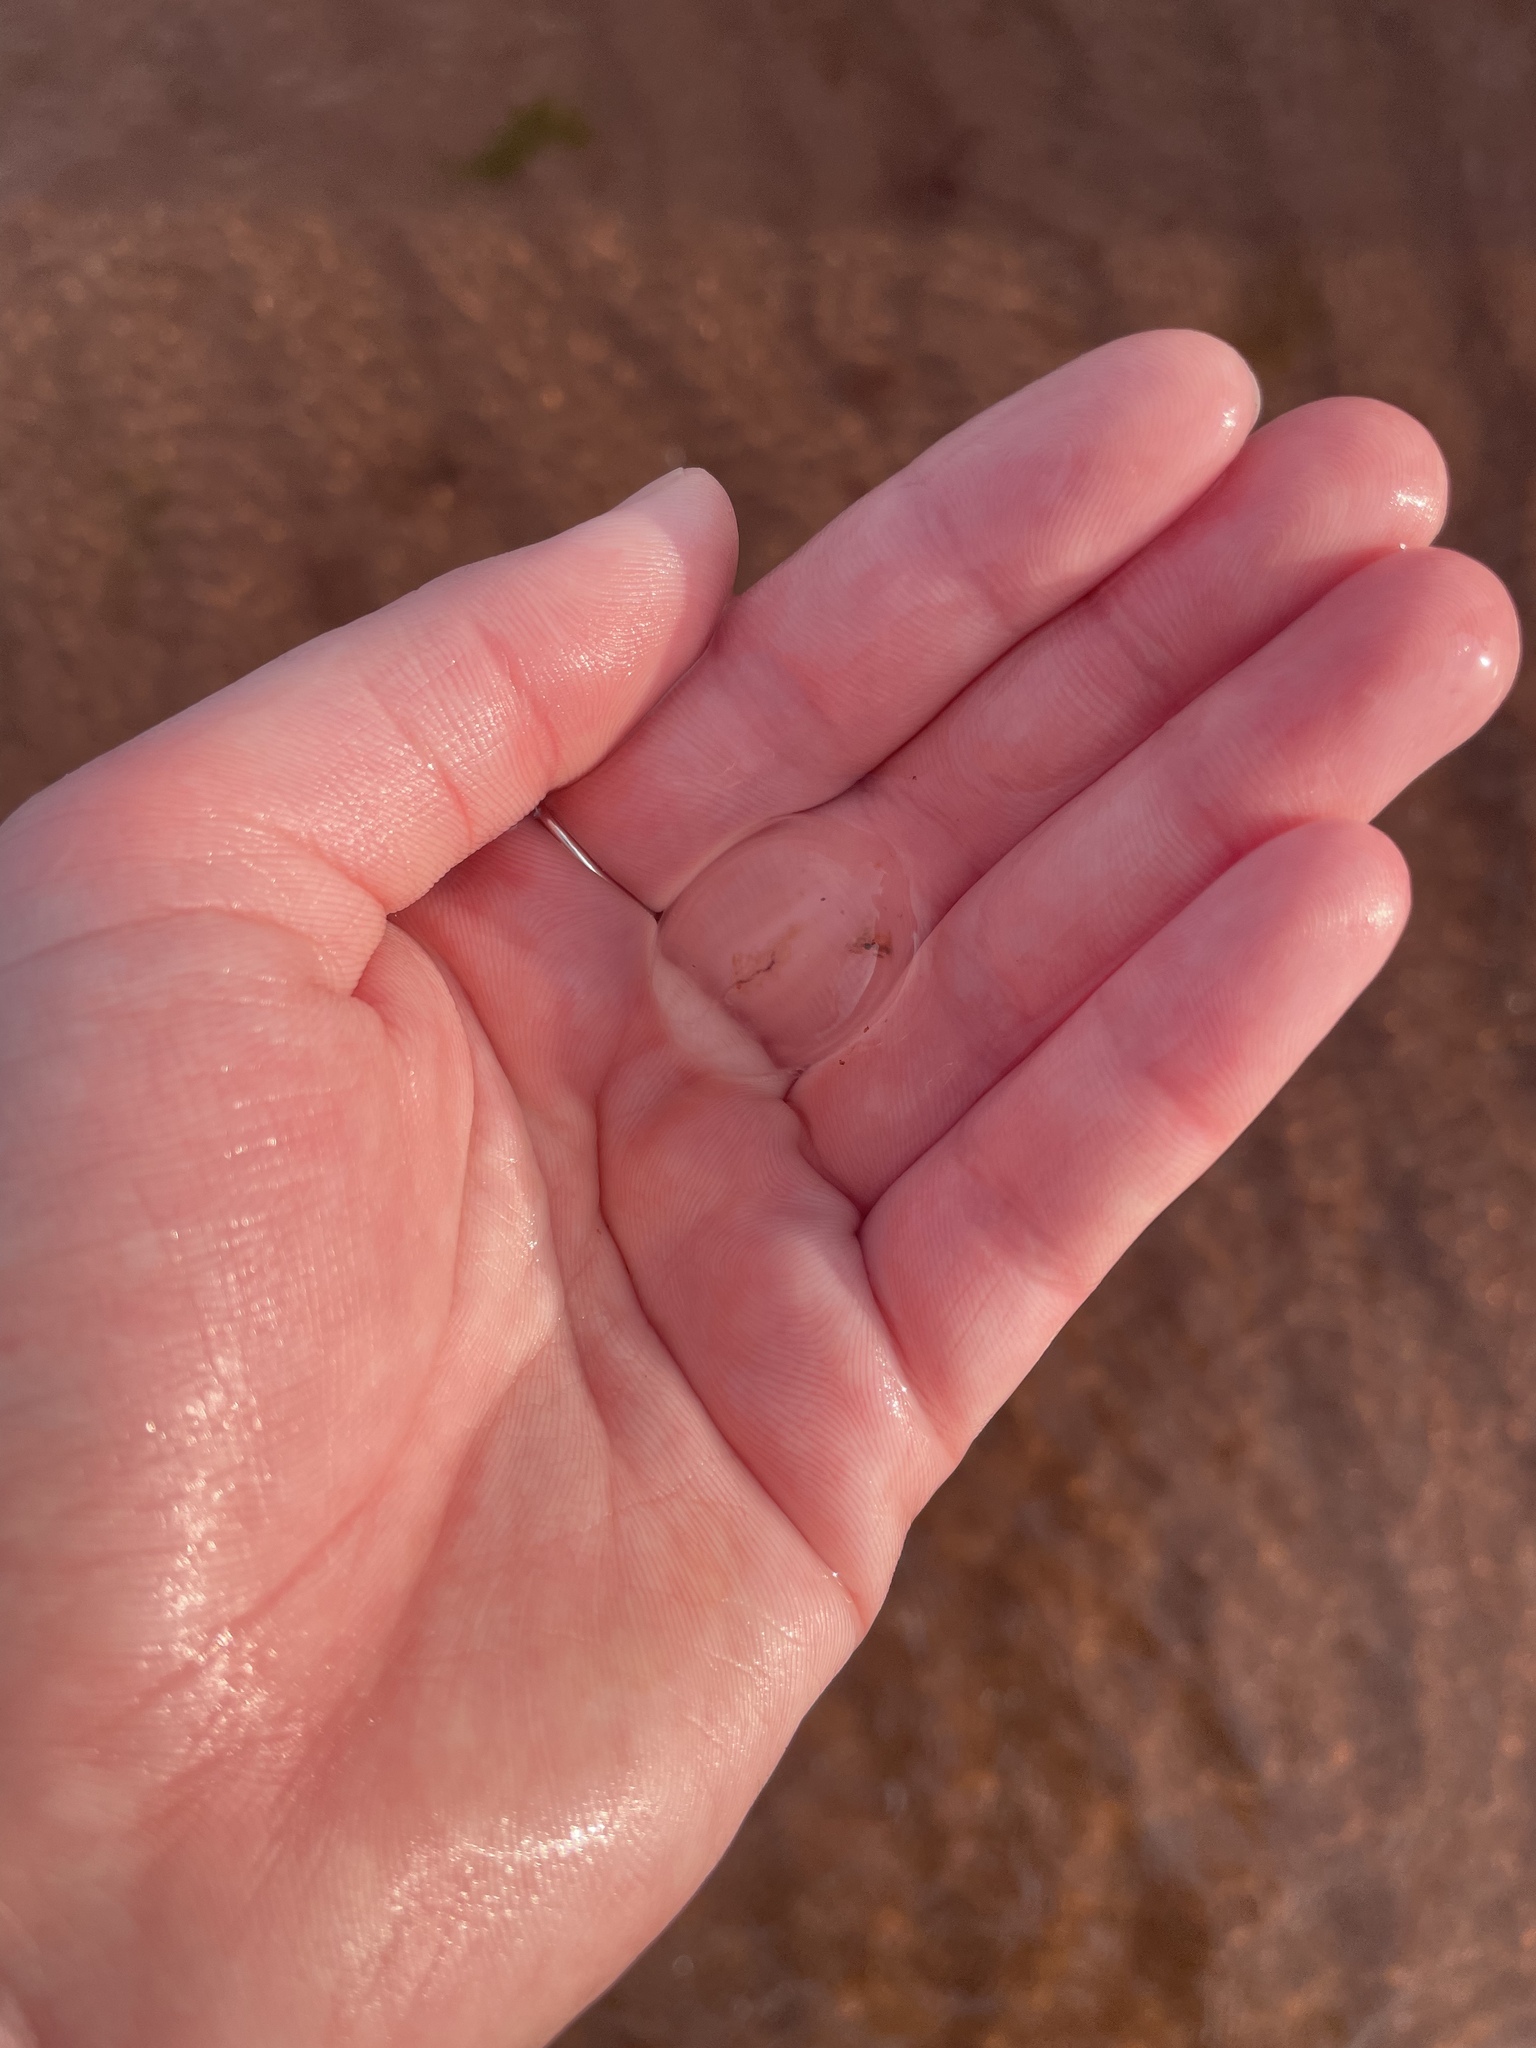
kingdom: Animalia
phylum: Ctenophora
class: Tentaculata
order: Cydippida
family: Pleurobrachiidae
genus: Pleurobrachia
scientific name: Pleurobrachia pileus
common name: Sea gooseberry
